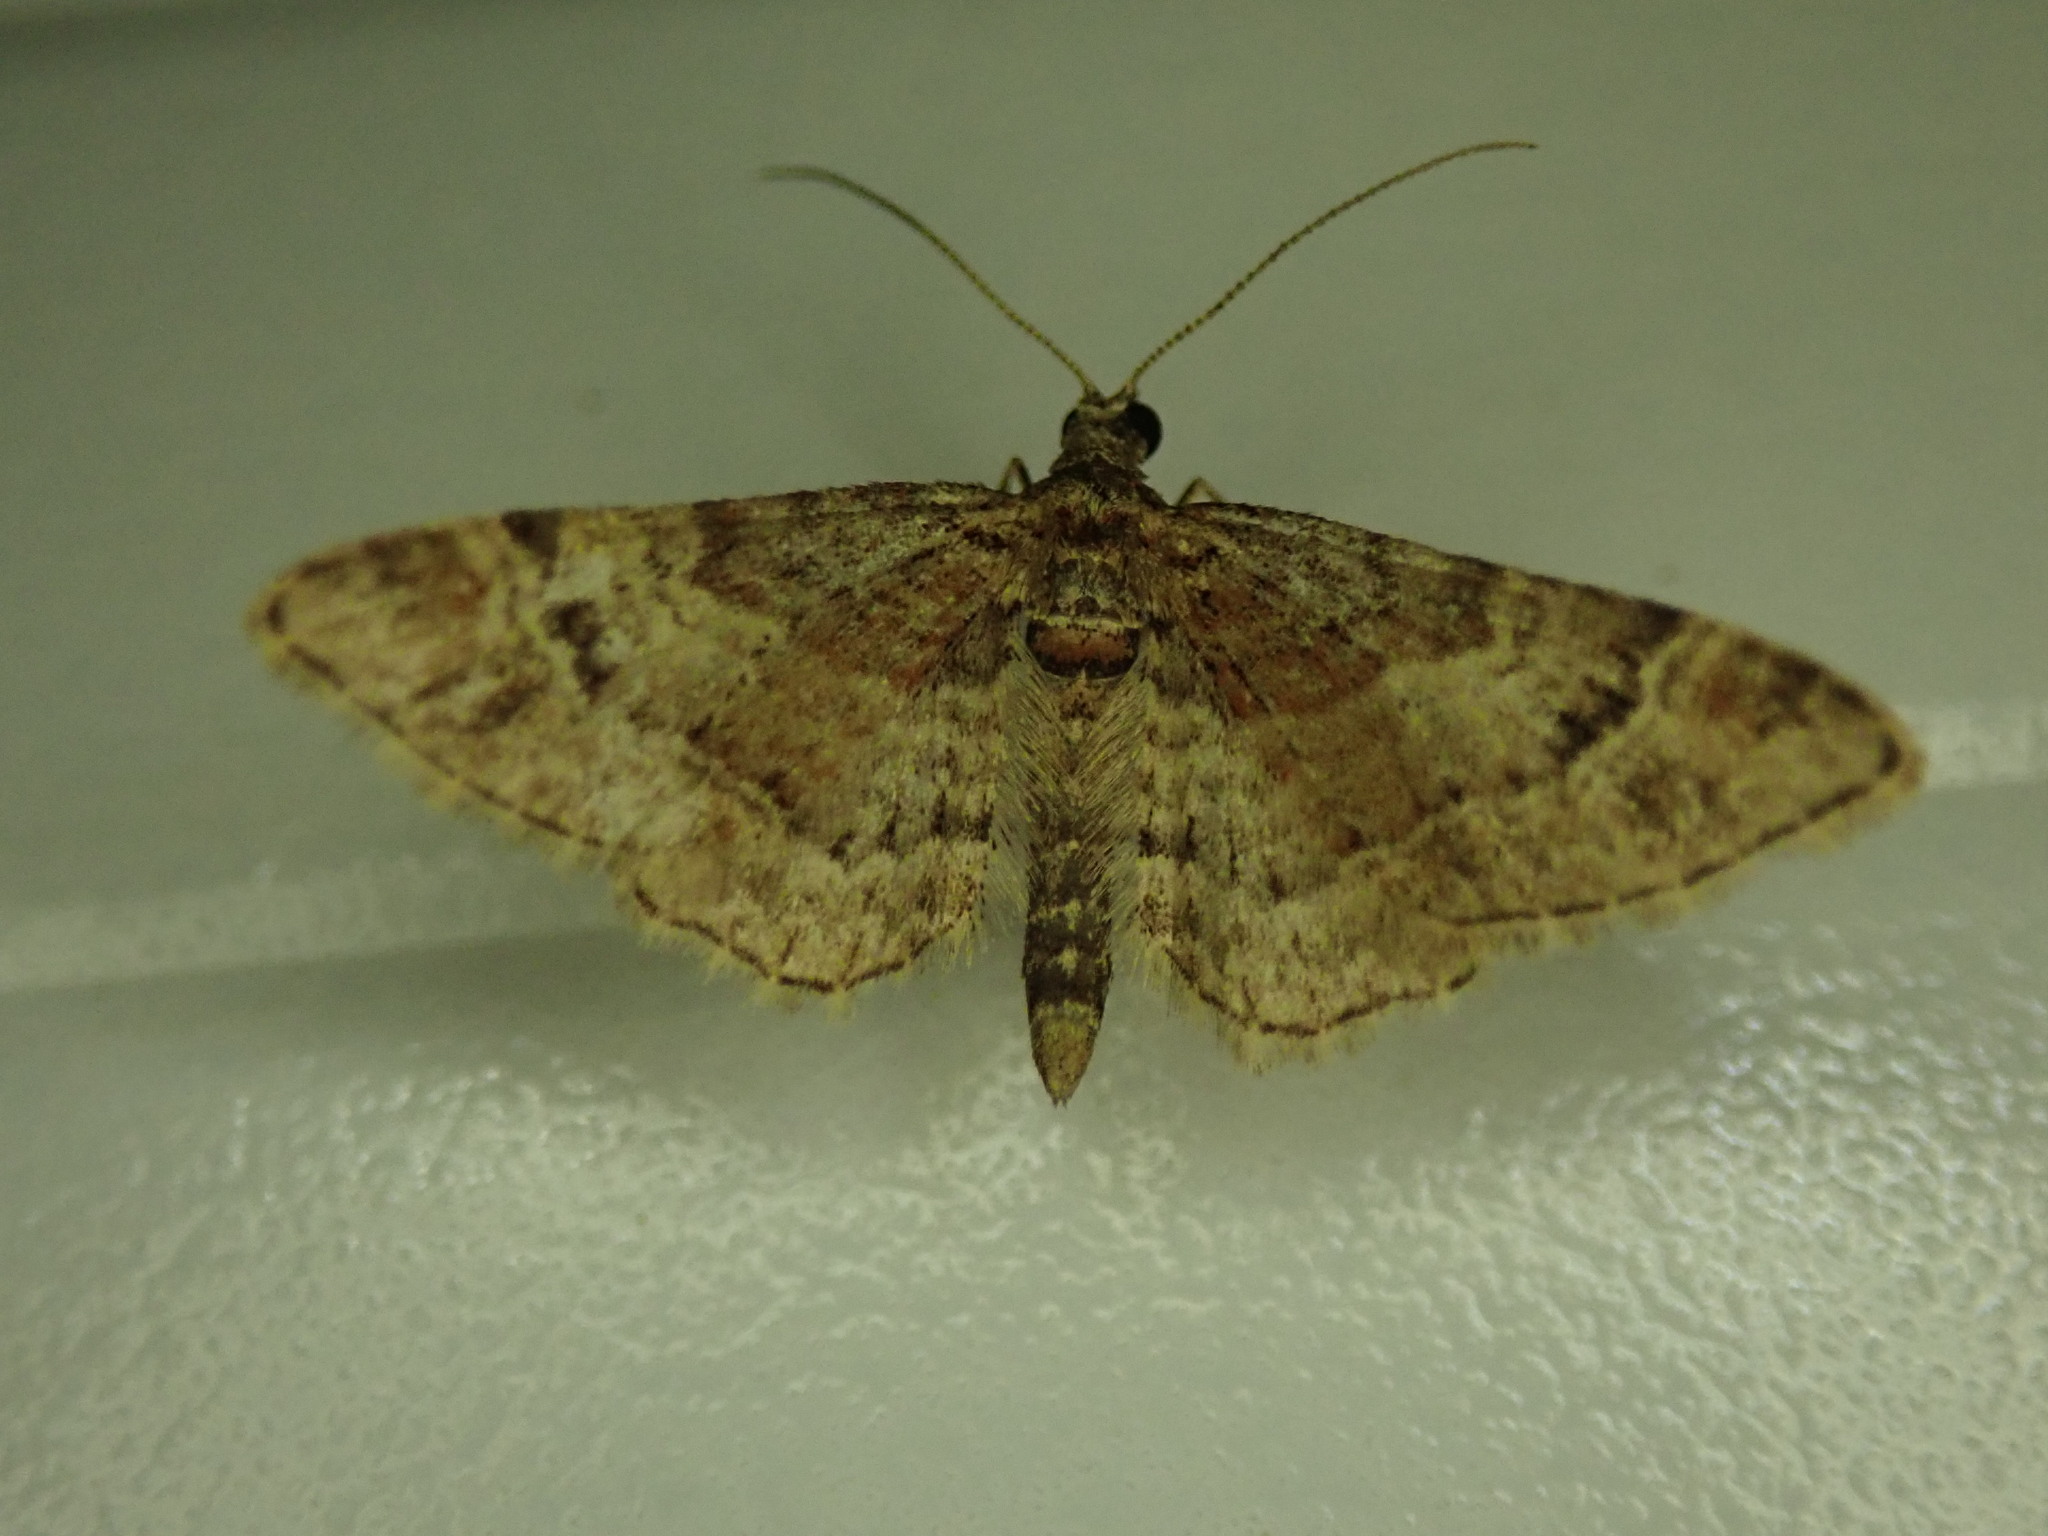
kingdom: Animalia
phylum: Arthropoda
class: Insecta
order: Lepidoptera
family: Geometridae
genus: Gymnoscelis
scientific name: Gymnoscelis rufifasciata
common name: Double-striped pug
